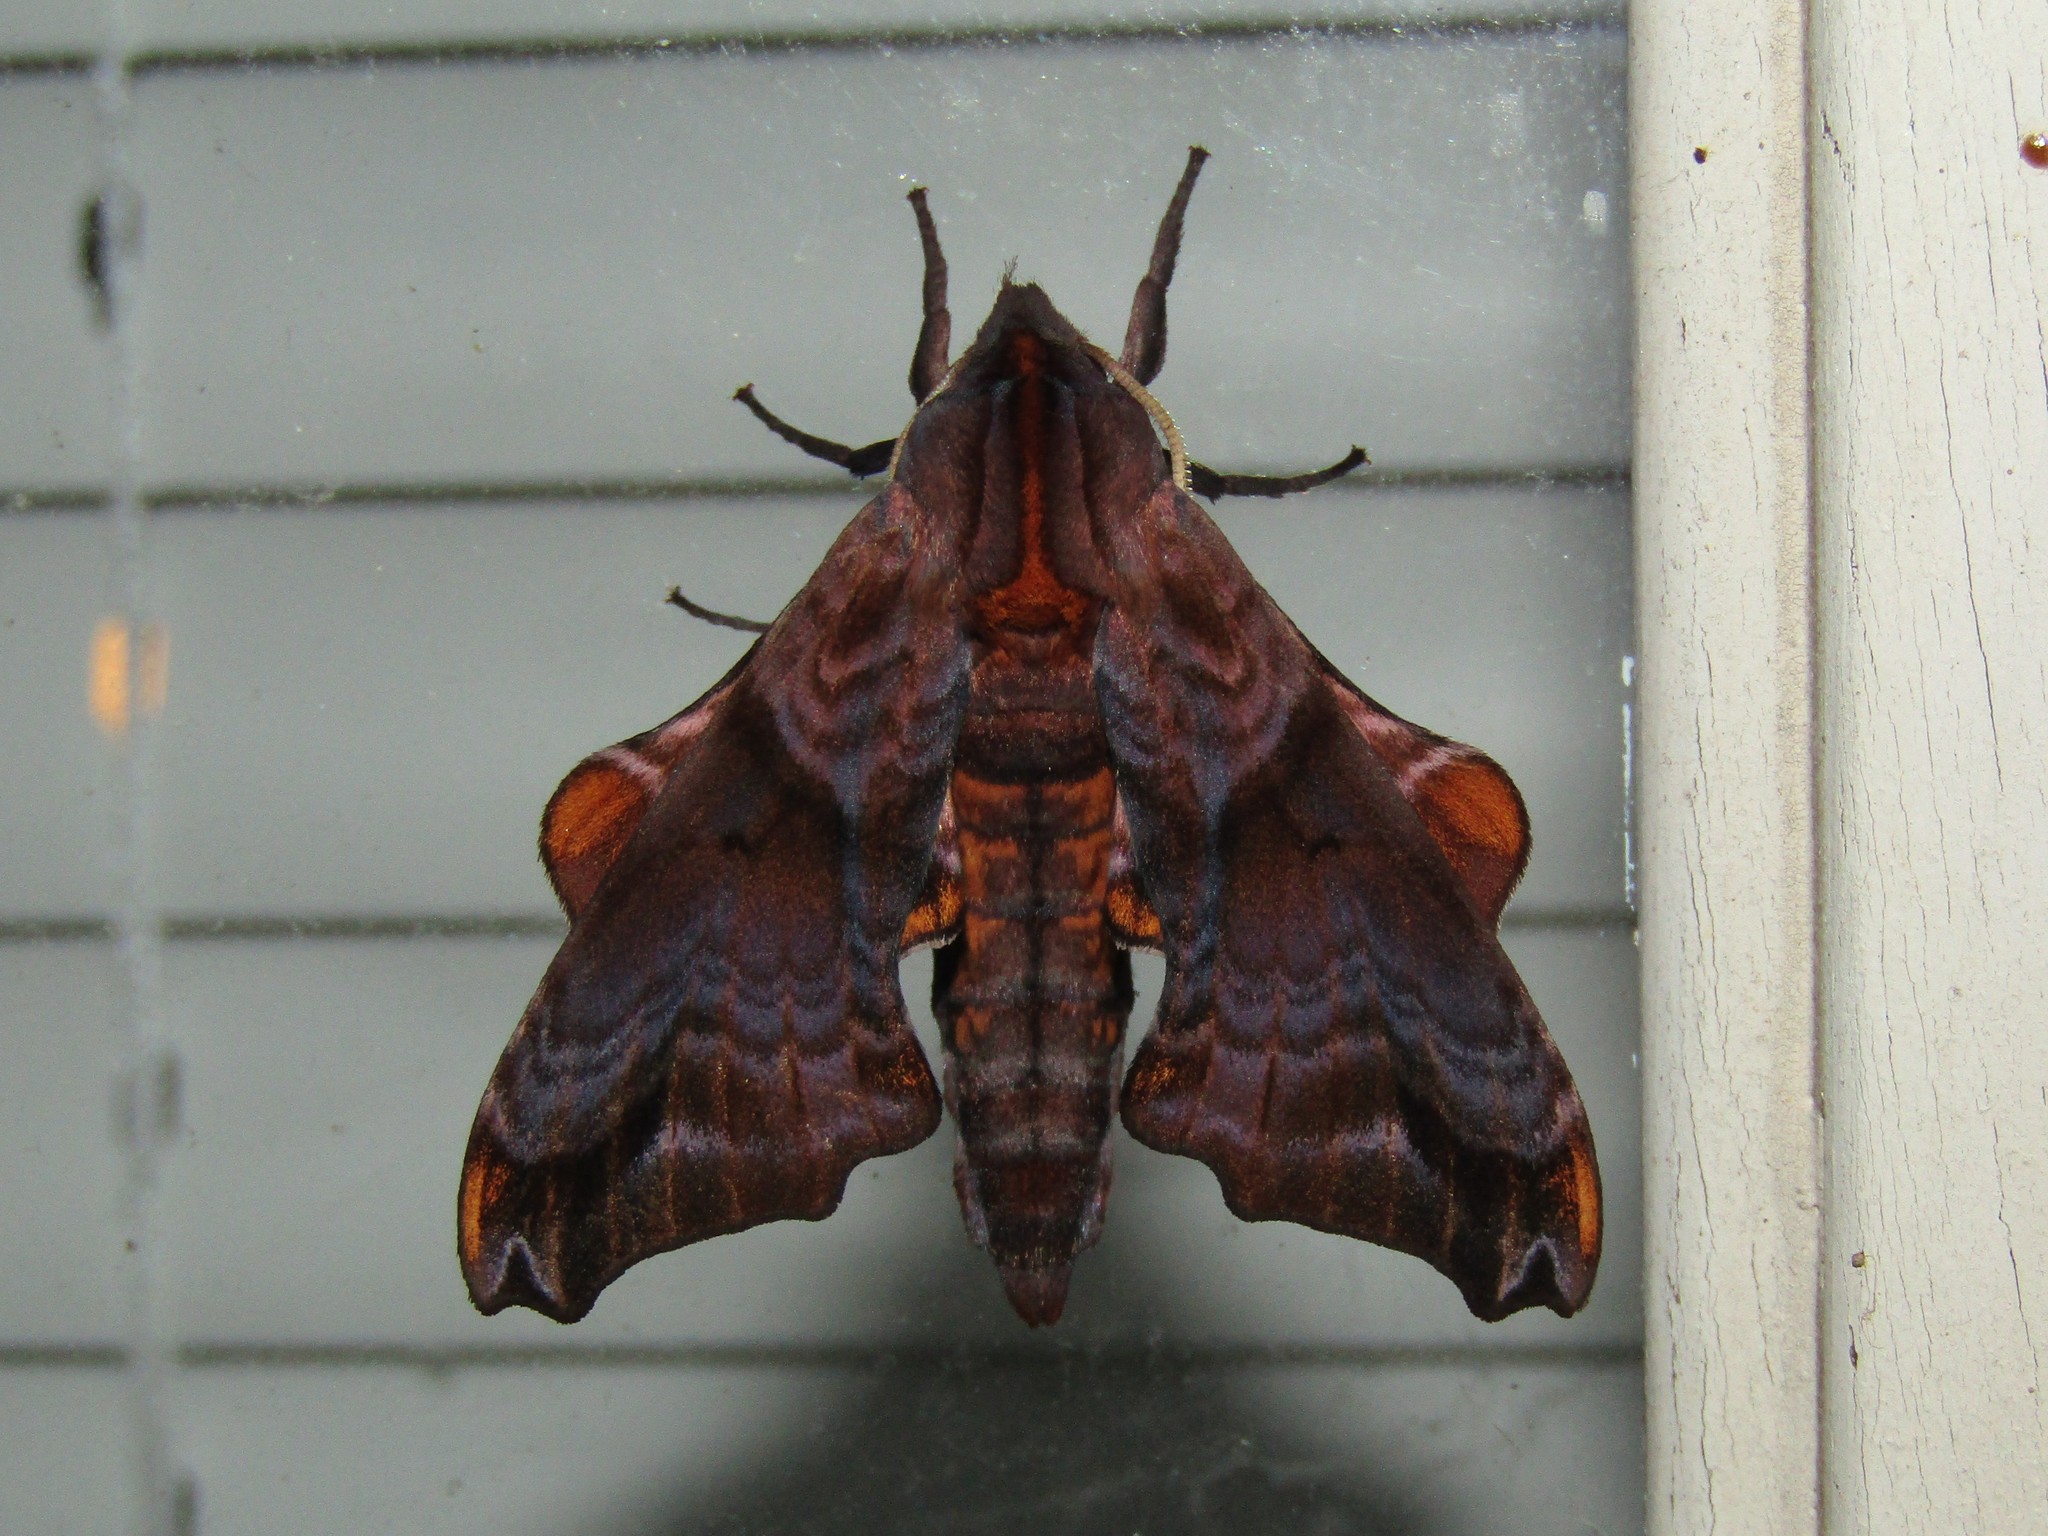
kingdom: Animalia
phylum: Arthropoda
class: Insecta
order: Lepidoptera
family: Sphingidae
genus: Paonias
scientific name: Paonias myops
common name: Small-eyed sphinx
